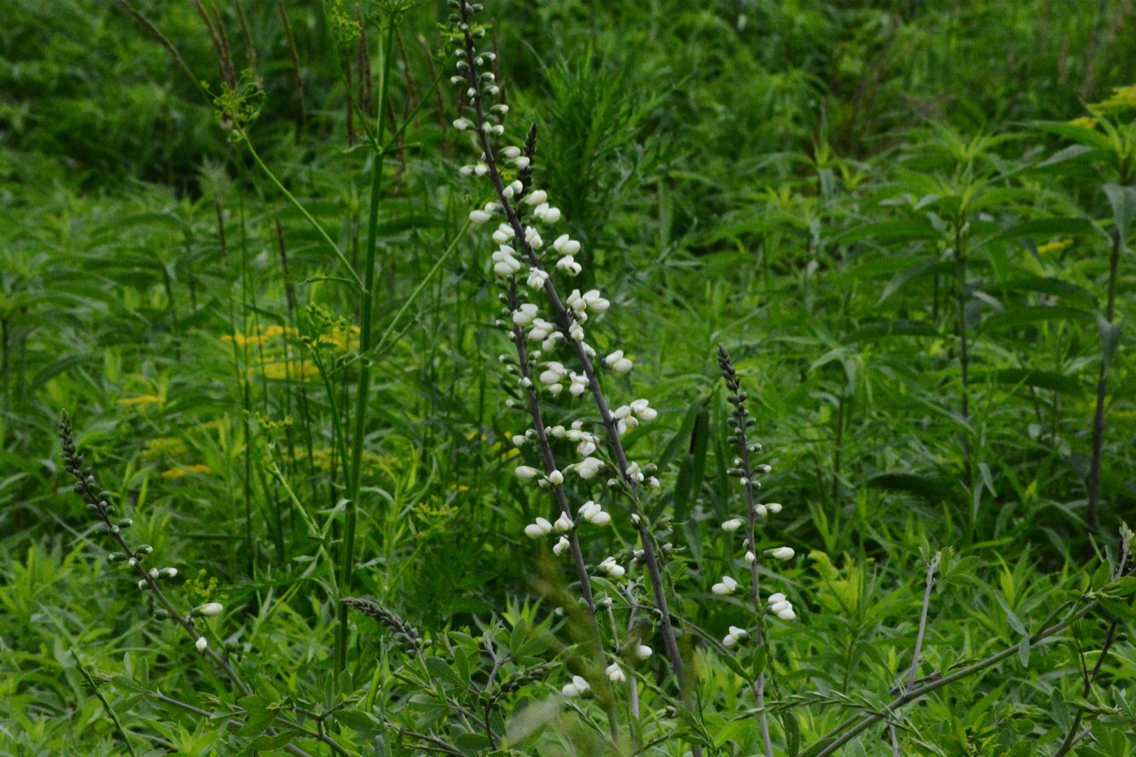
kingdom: Plantae
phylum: Tracheophyta
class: Magnoliopsida
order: Fabales
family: Fabaceae
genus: Baptisia
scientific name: Baptisia alba
